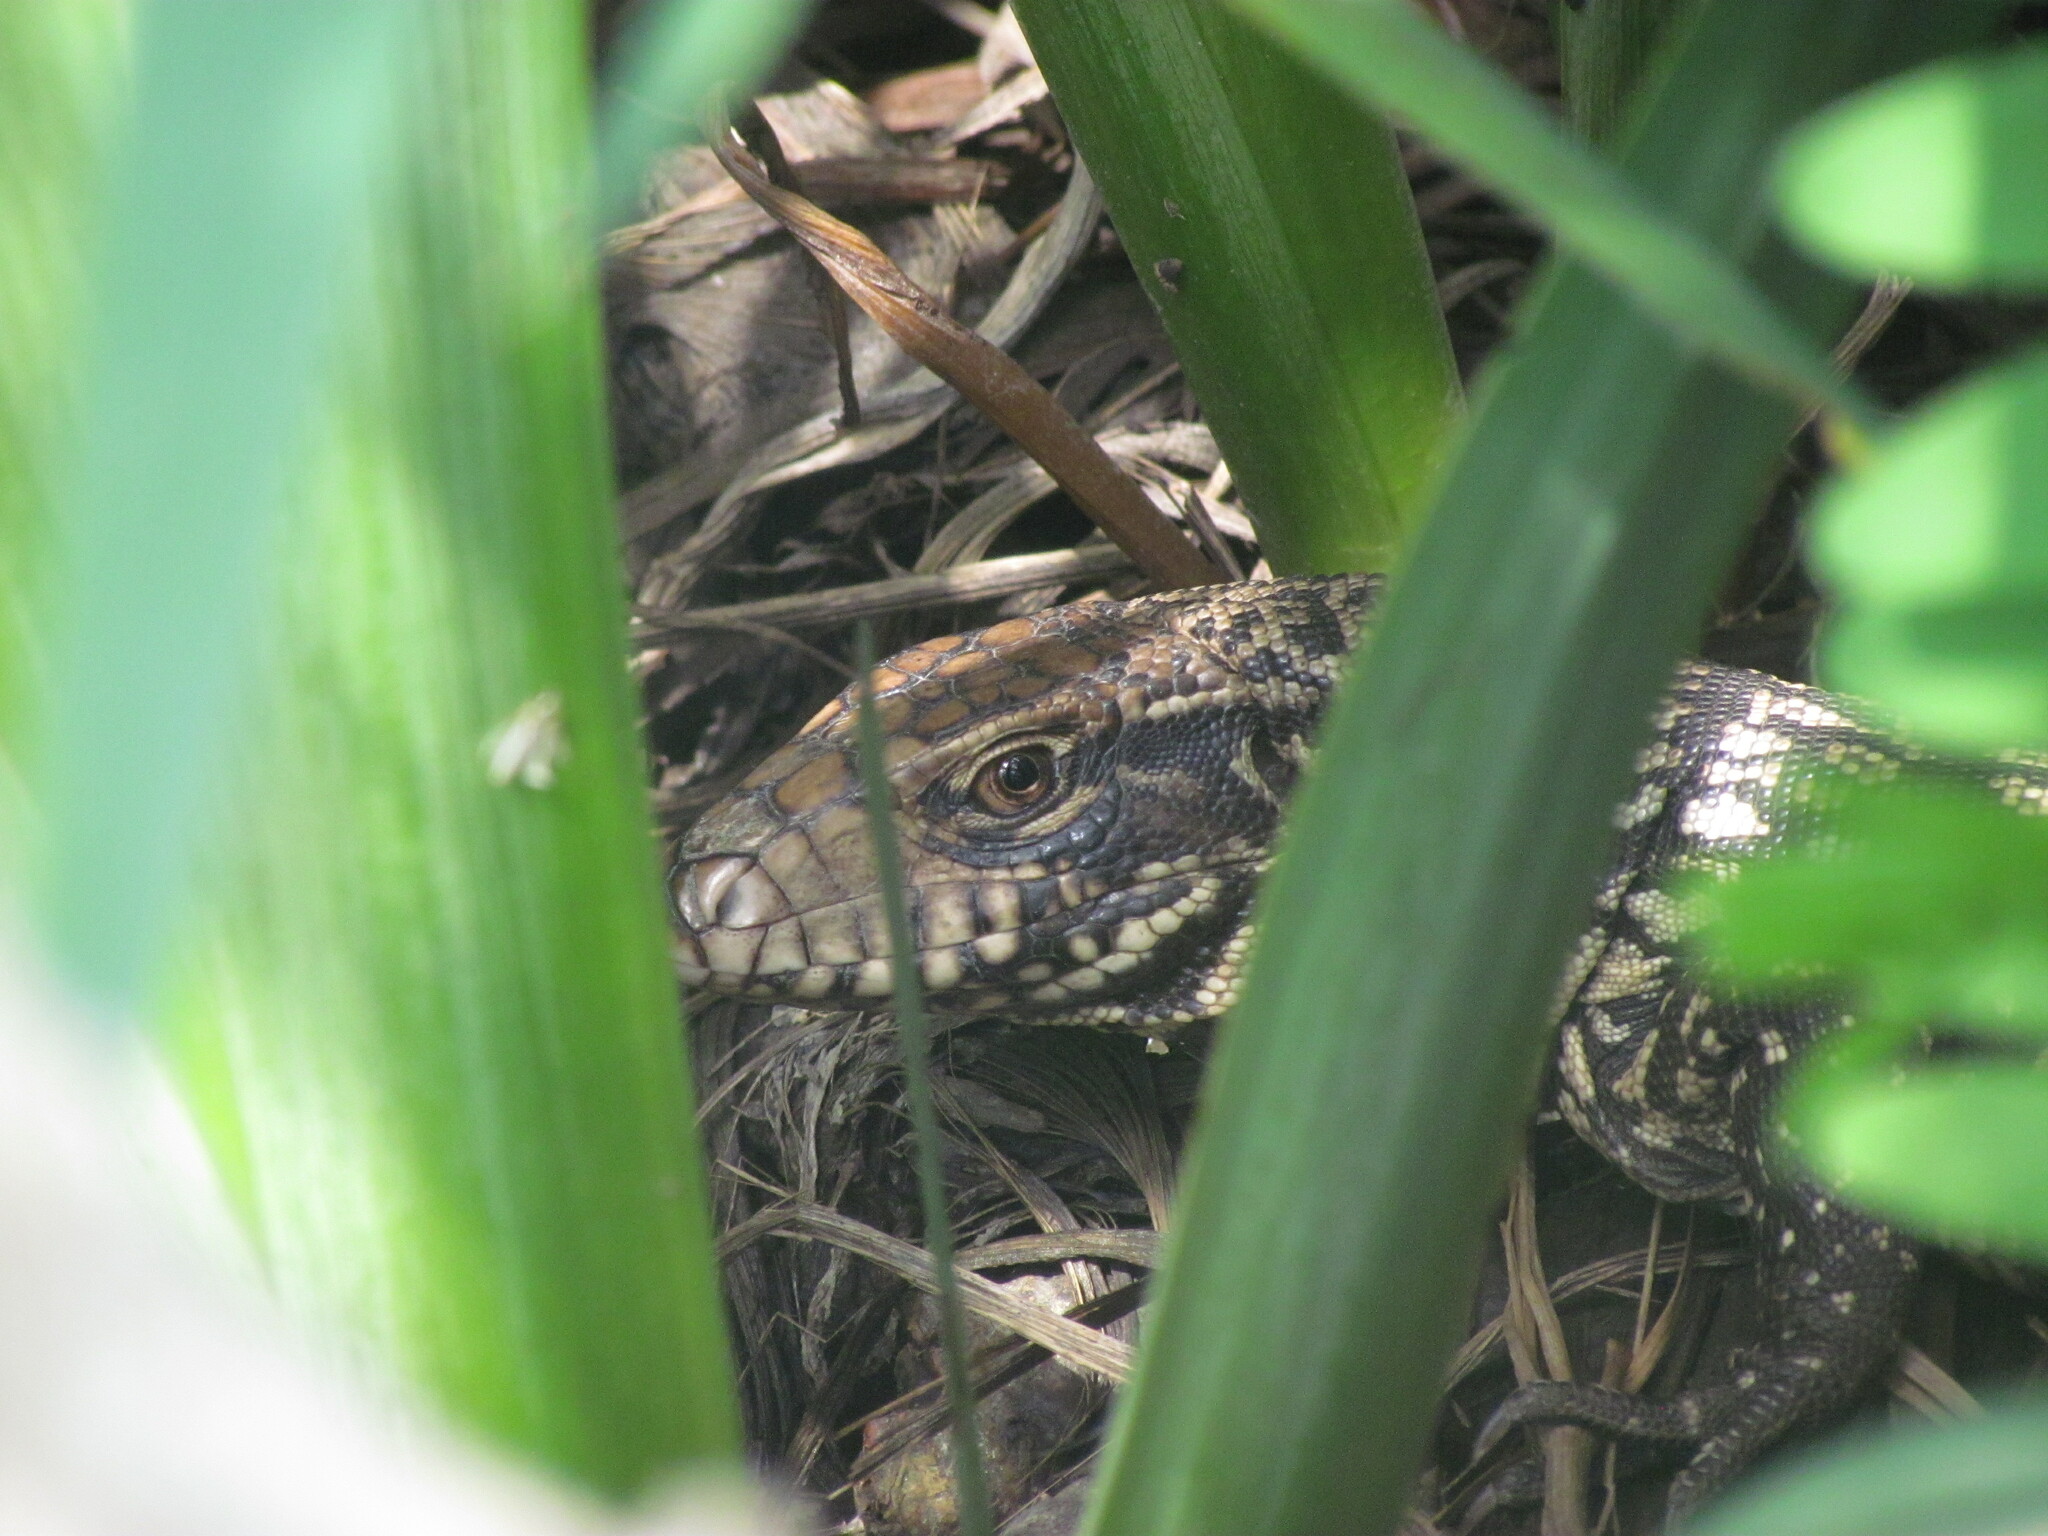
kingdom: Animalia
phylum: Chordata
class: Squamata
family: Teiidae
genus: Salvator
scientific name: Salvator merianae
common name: Argentine black and white tegu
